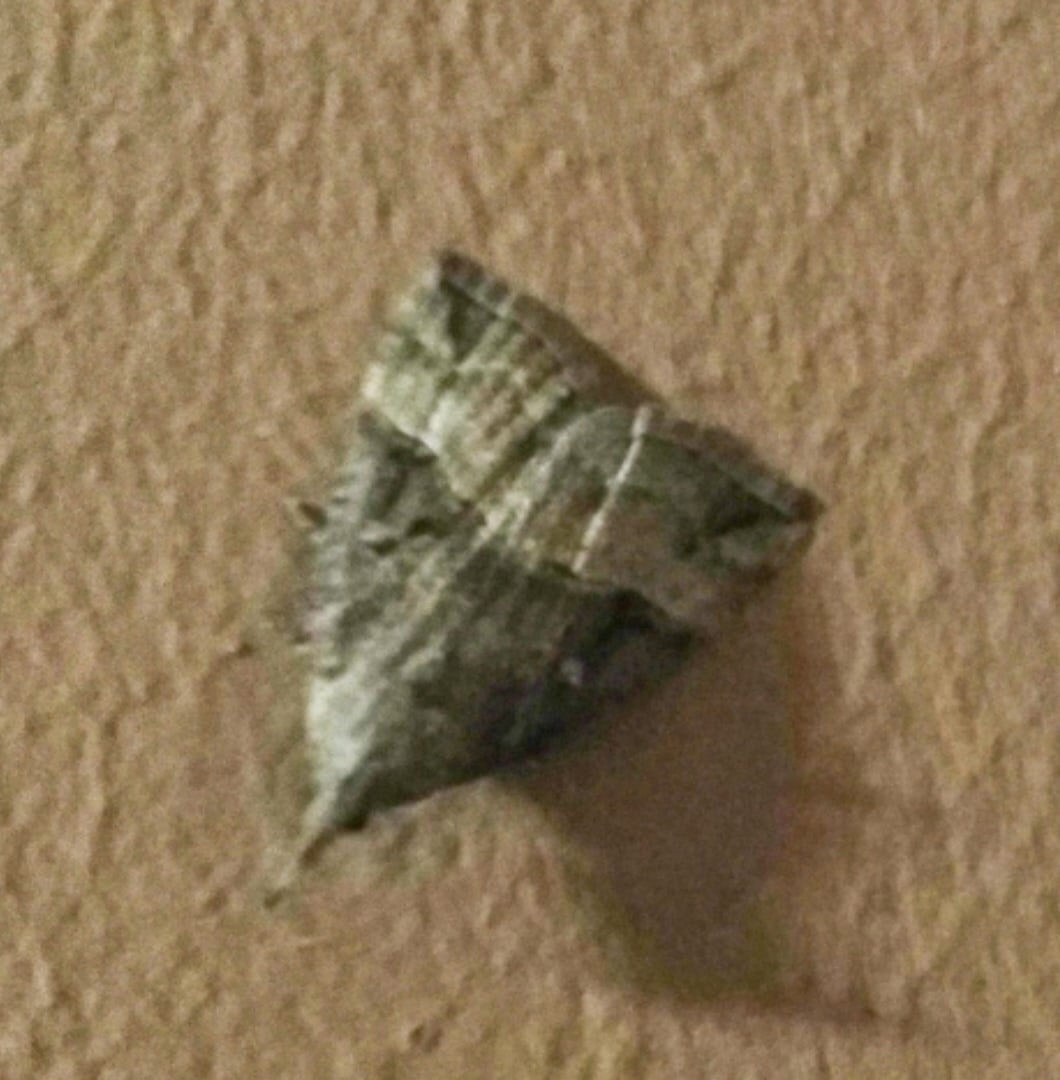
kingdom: Animalia
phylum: Arthropoda
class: Insecta
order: Lepidoptera
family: Erebidae
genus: Hypena
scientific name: Hypena rostralis
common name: Buttoned snout
